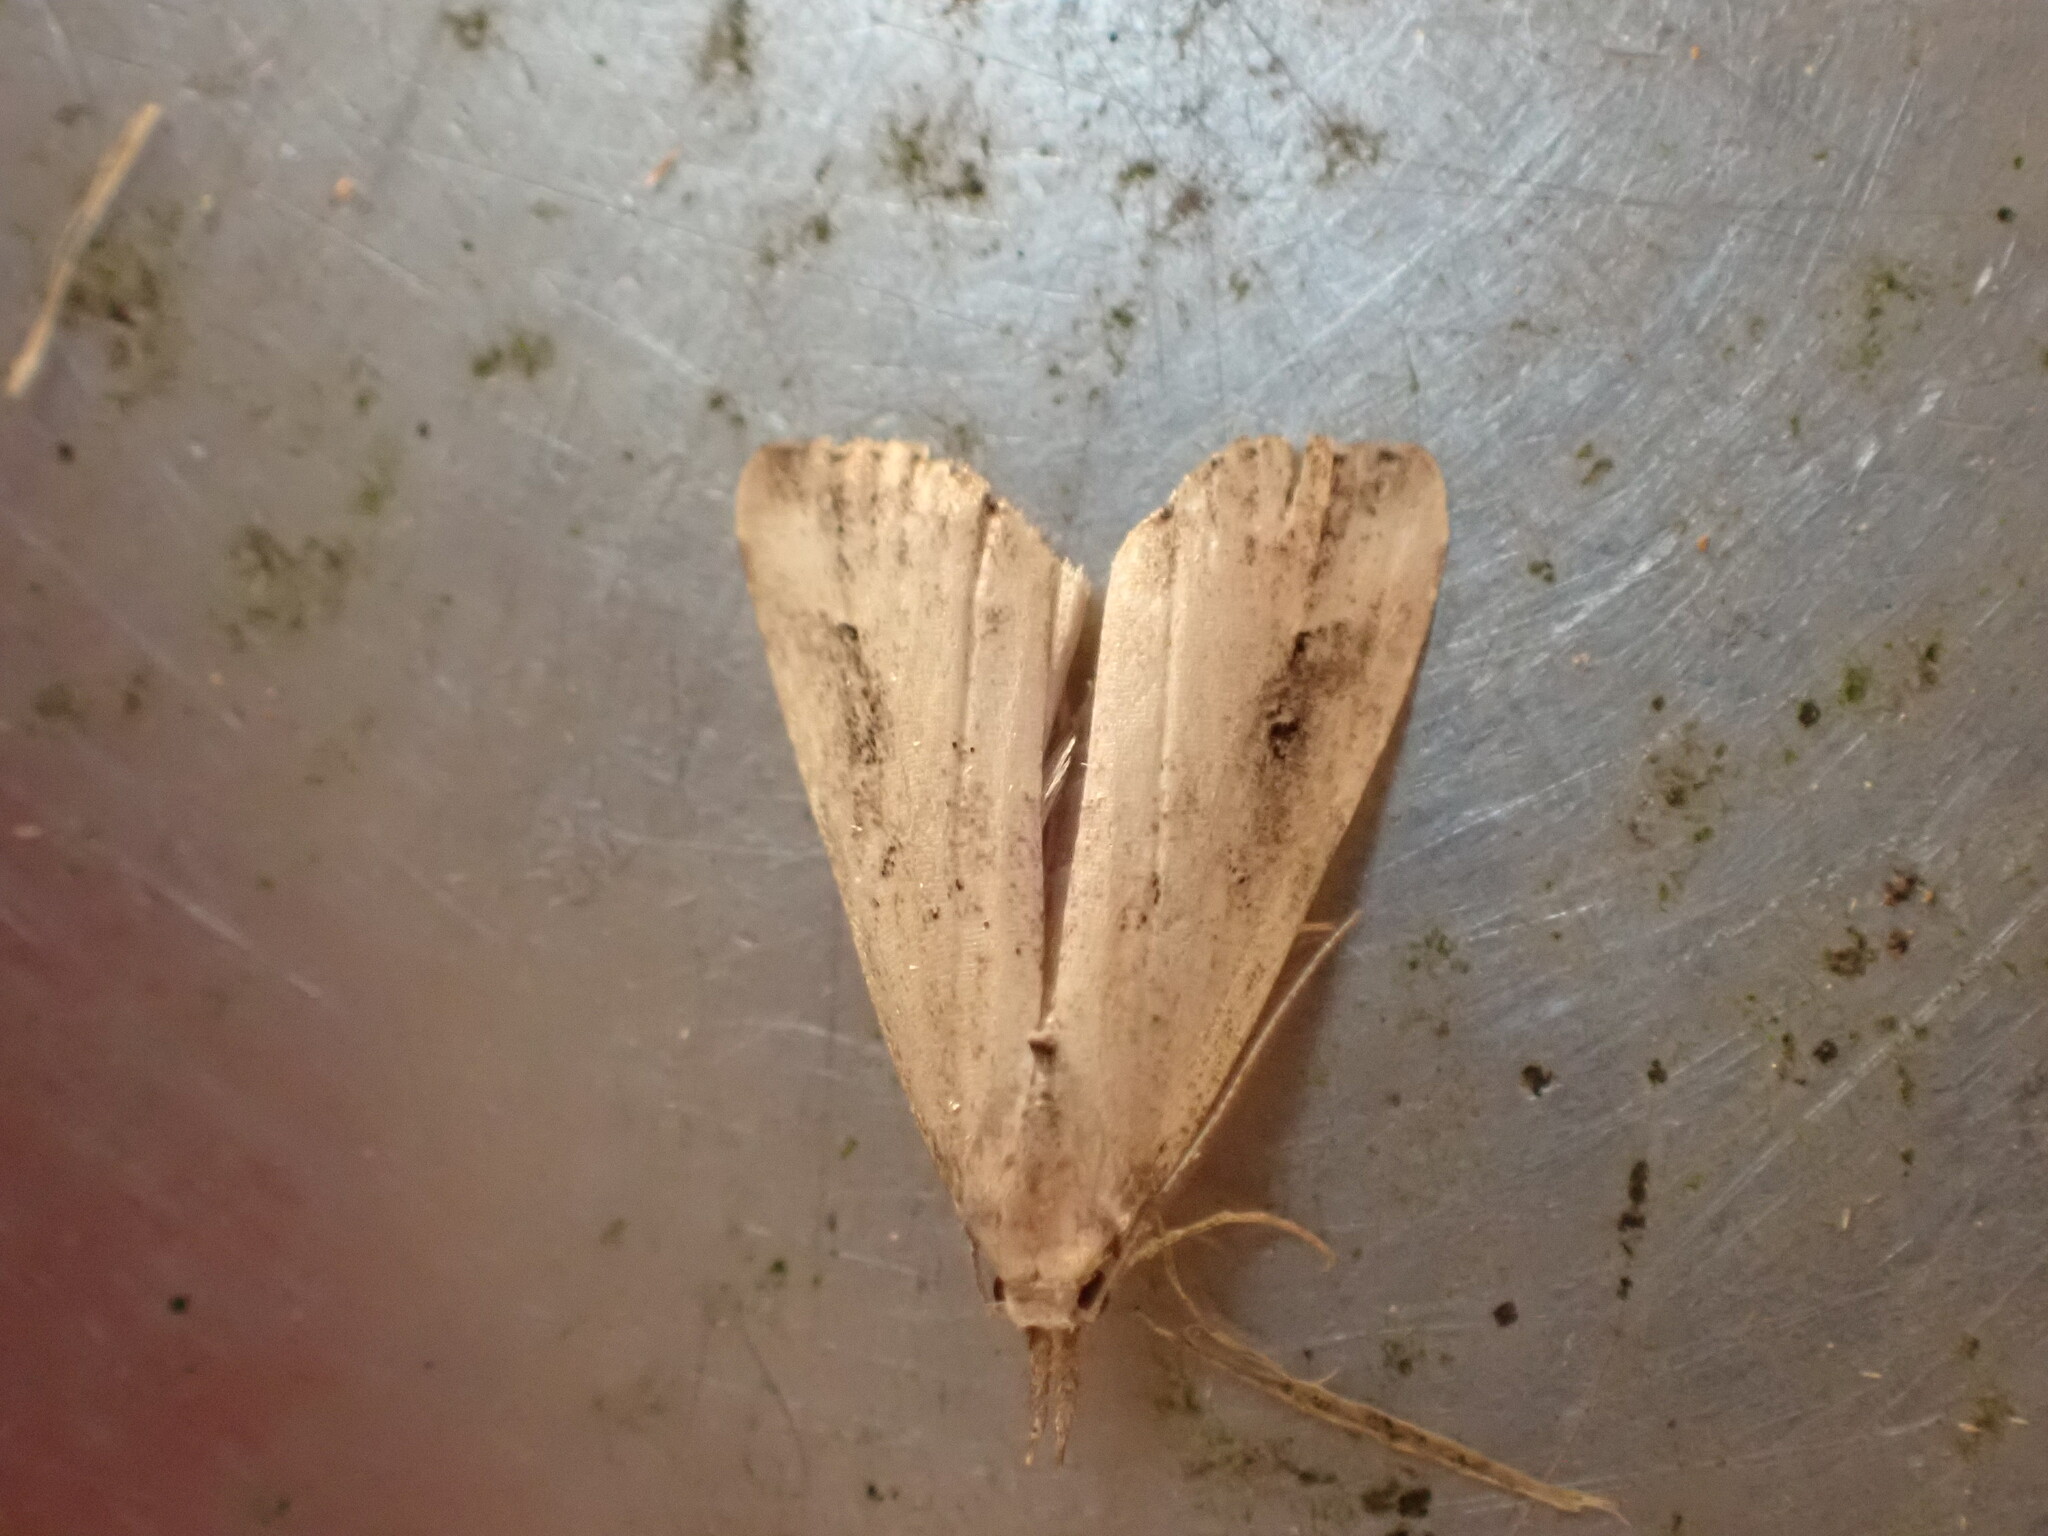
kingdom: Animalia
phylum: Arthropoda
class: Insecta
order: Lepidoptera
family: Erebidae
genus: Schrankia
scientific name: Schrankia costaestrigalis
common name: Pinion-streaked snout
